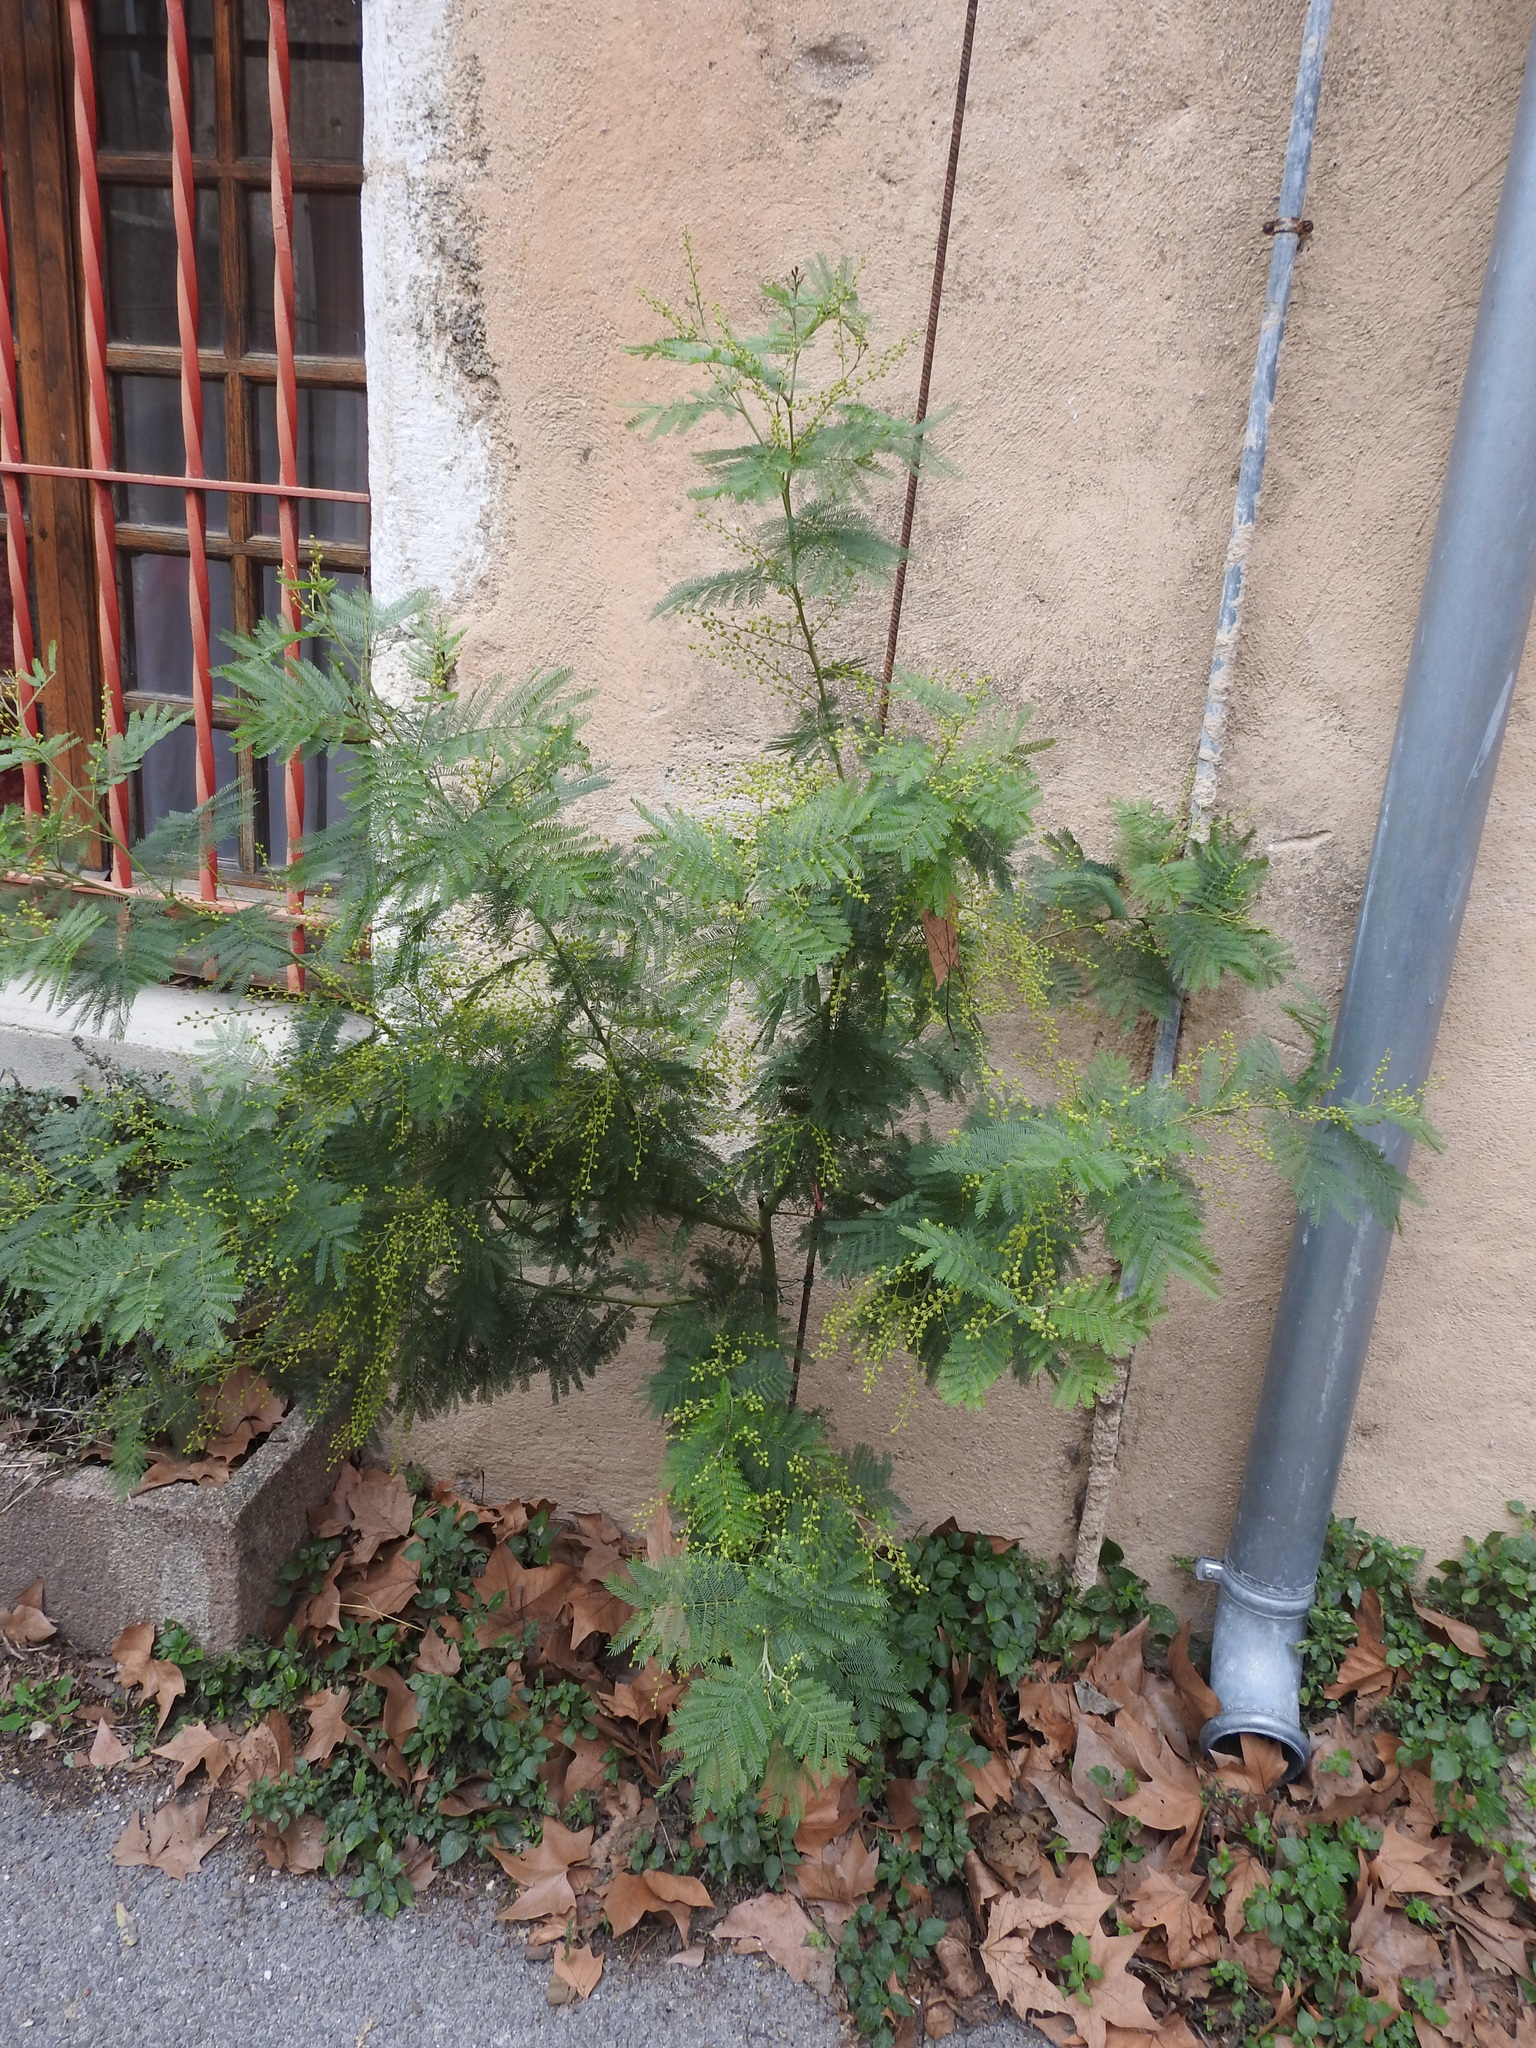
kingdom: Plantae
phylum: Tracheophyta
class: Magnoliopsida
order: Fabales
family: Fabaceae
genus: Acacia
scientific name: Acacia dealbata
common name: Silver wattle
